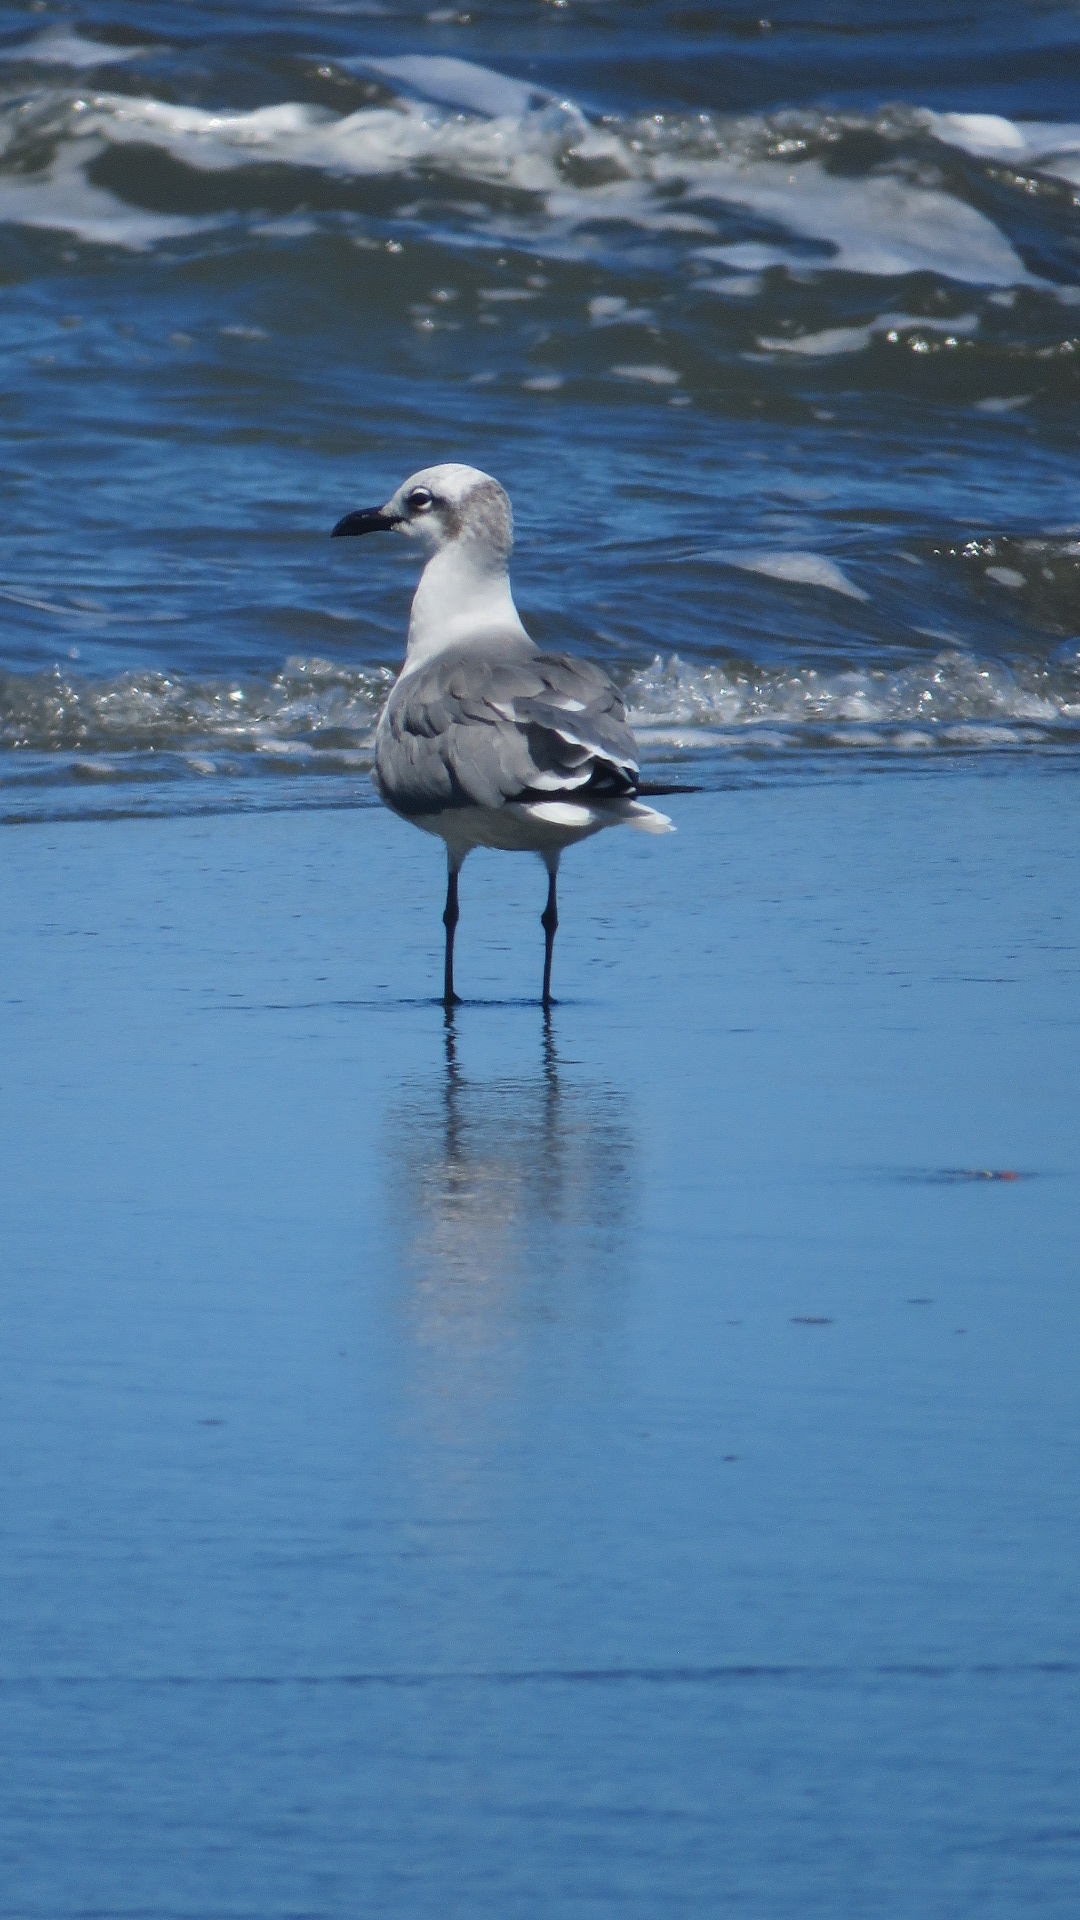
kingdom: Animalia
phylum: Chordata
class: Aves
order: Charadriiformes
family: Laridae
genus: Leucophaeus
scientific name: Leucophaeus atricilla
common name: Laughing gull
